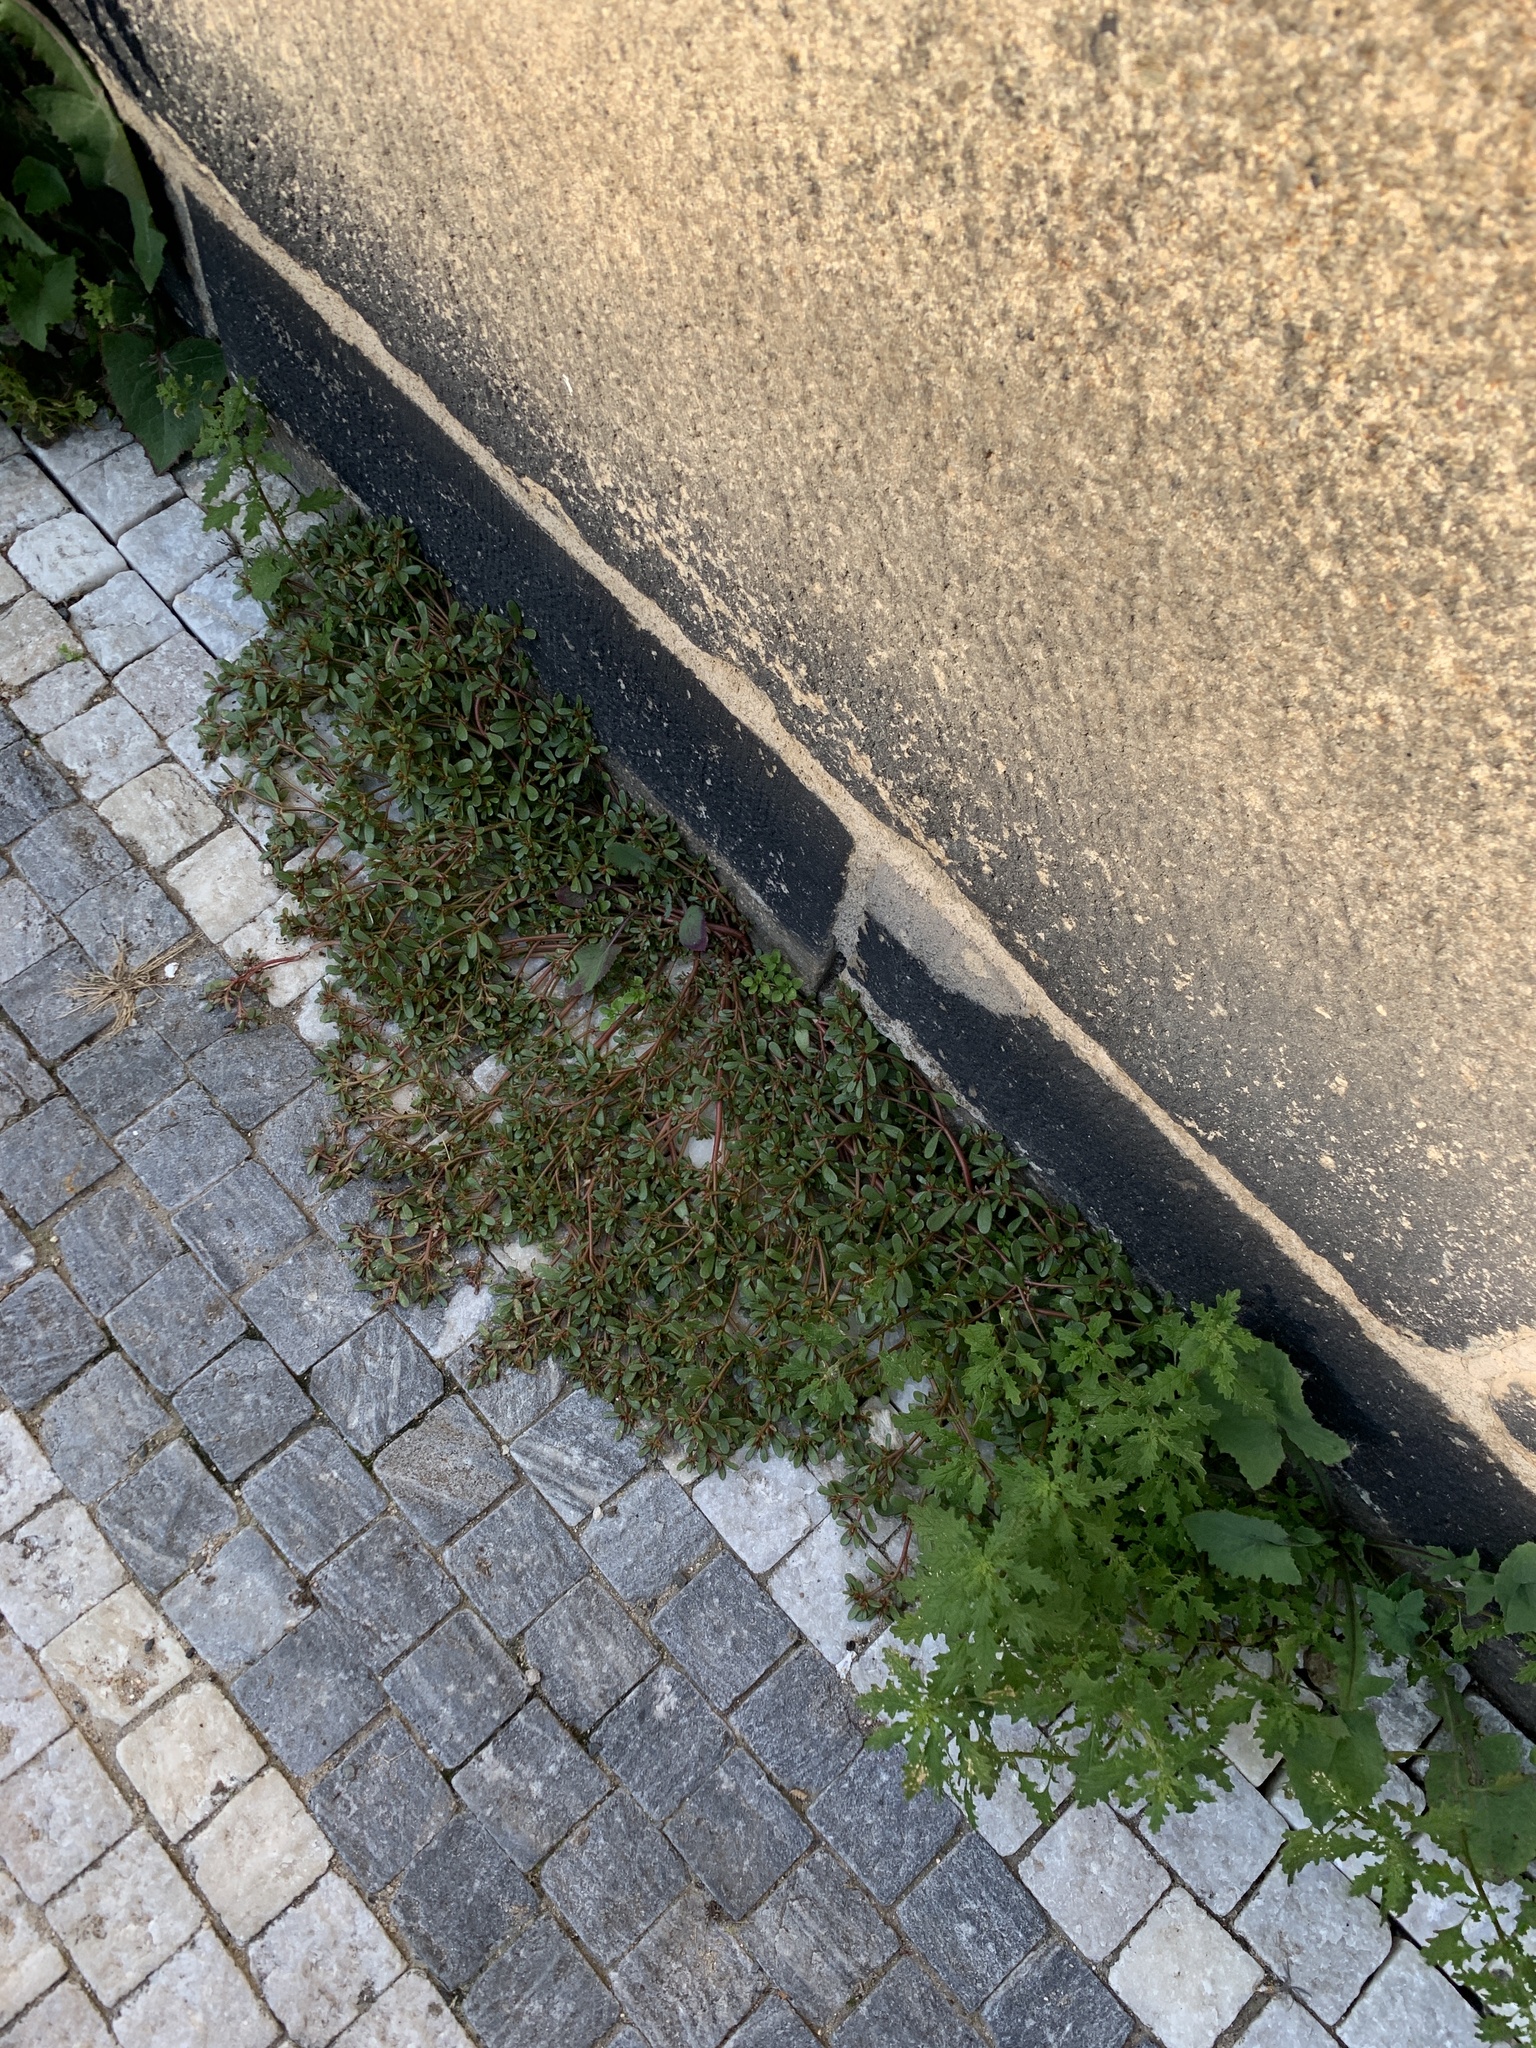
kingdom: Plantae
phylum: Tracheophyta
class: Magnoliopsida
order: Caryophyllales
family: Portulacaceae
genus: Portulaca
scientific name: Portulaca oleracea
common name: Common purslane
